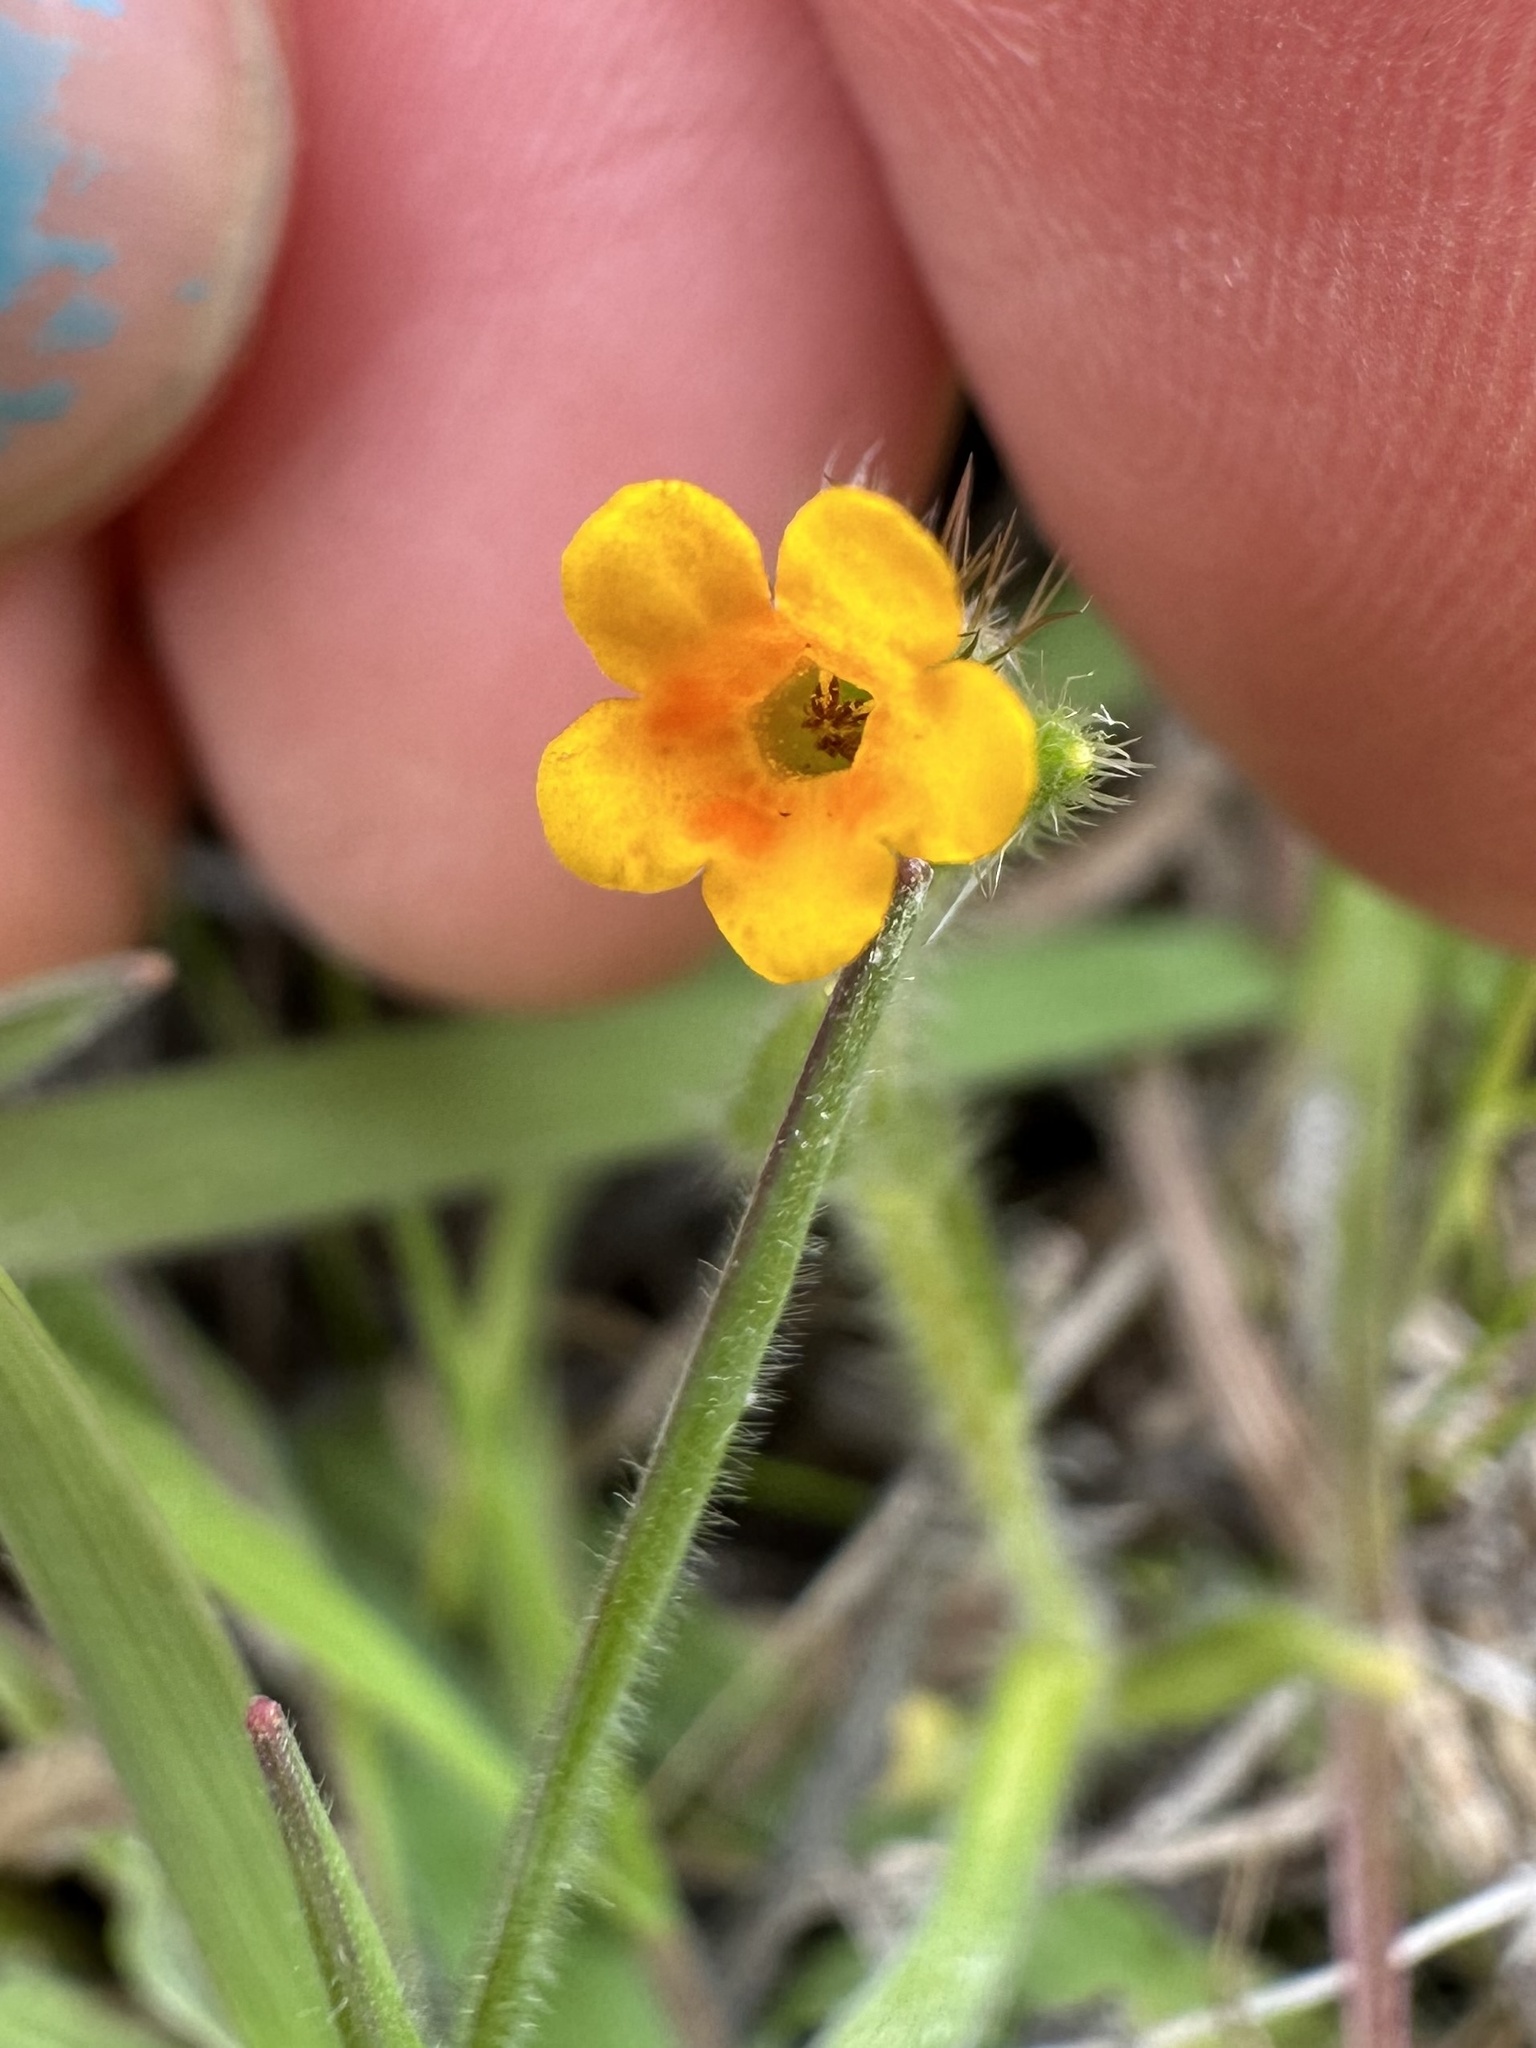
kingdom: Plantae
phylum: Tracheophyta
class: Magnoliopsida
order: Boraginales
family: Boraginaceae
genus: Amsinckia
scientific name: Amsinckia menziesii
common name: Menzies' fiddleneck
